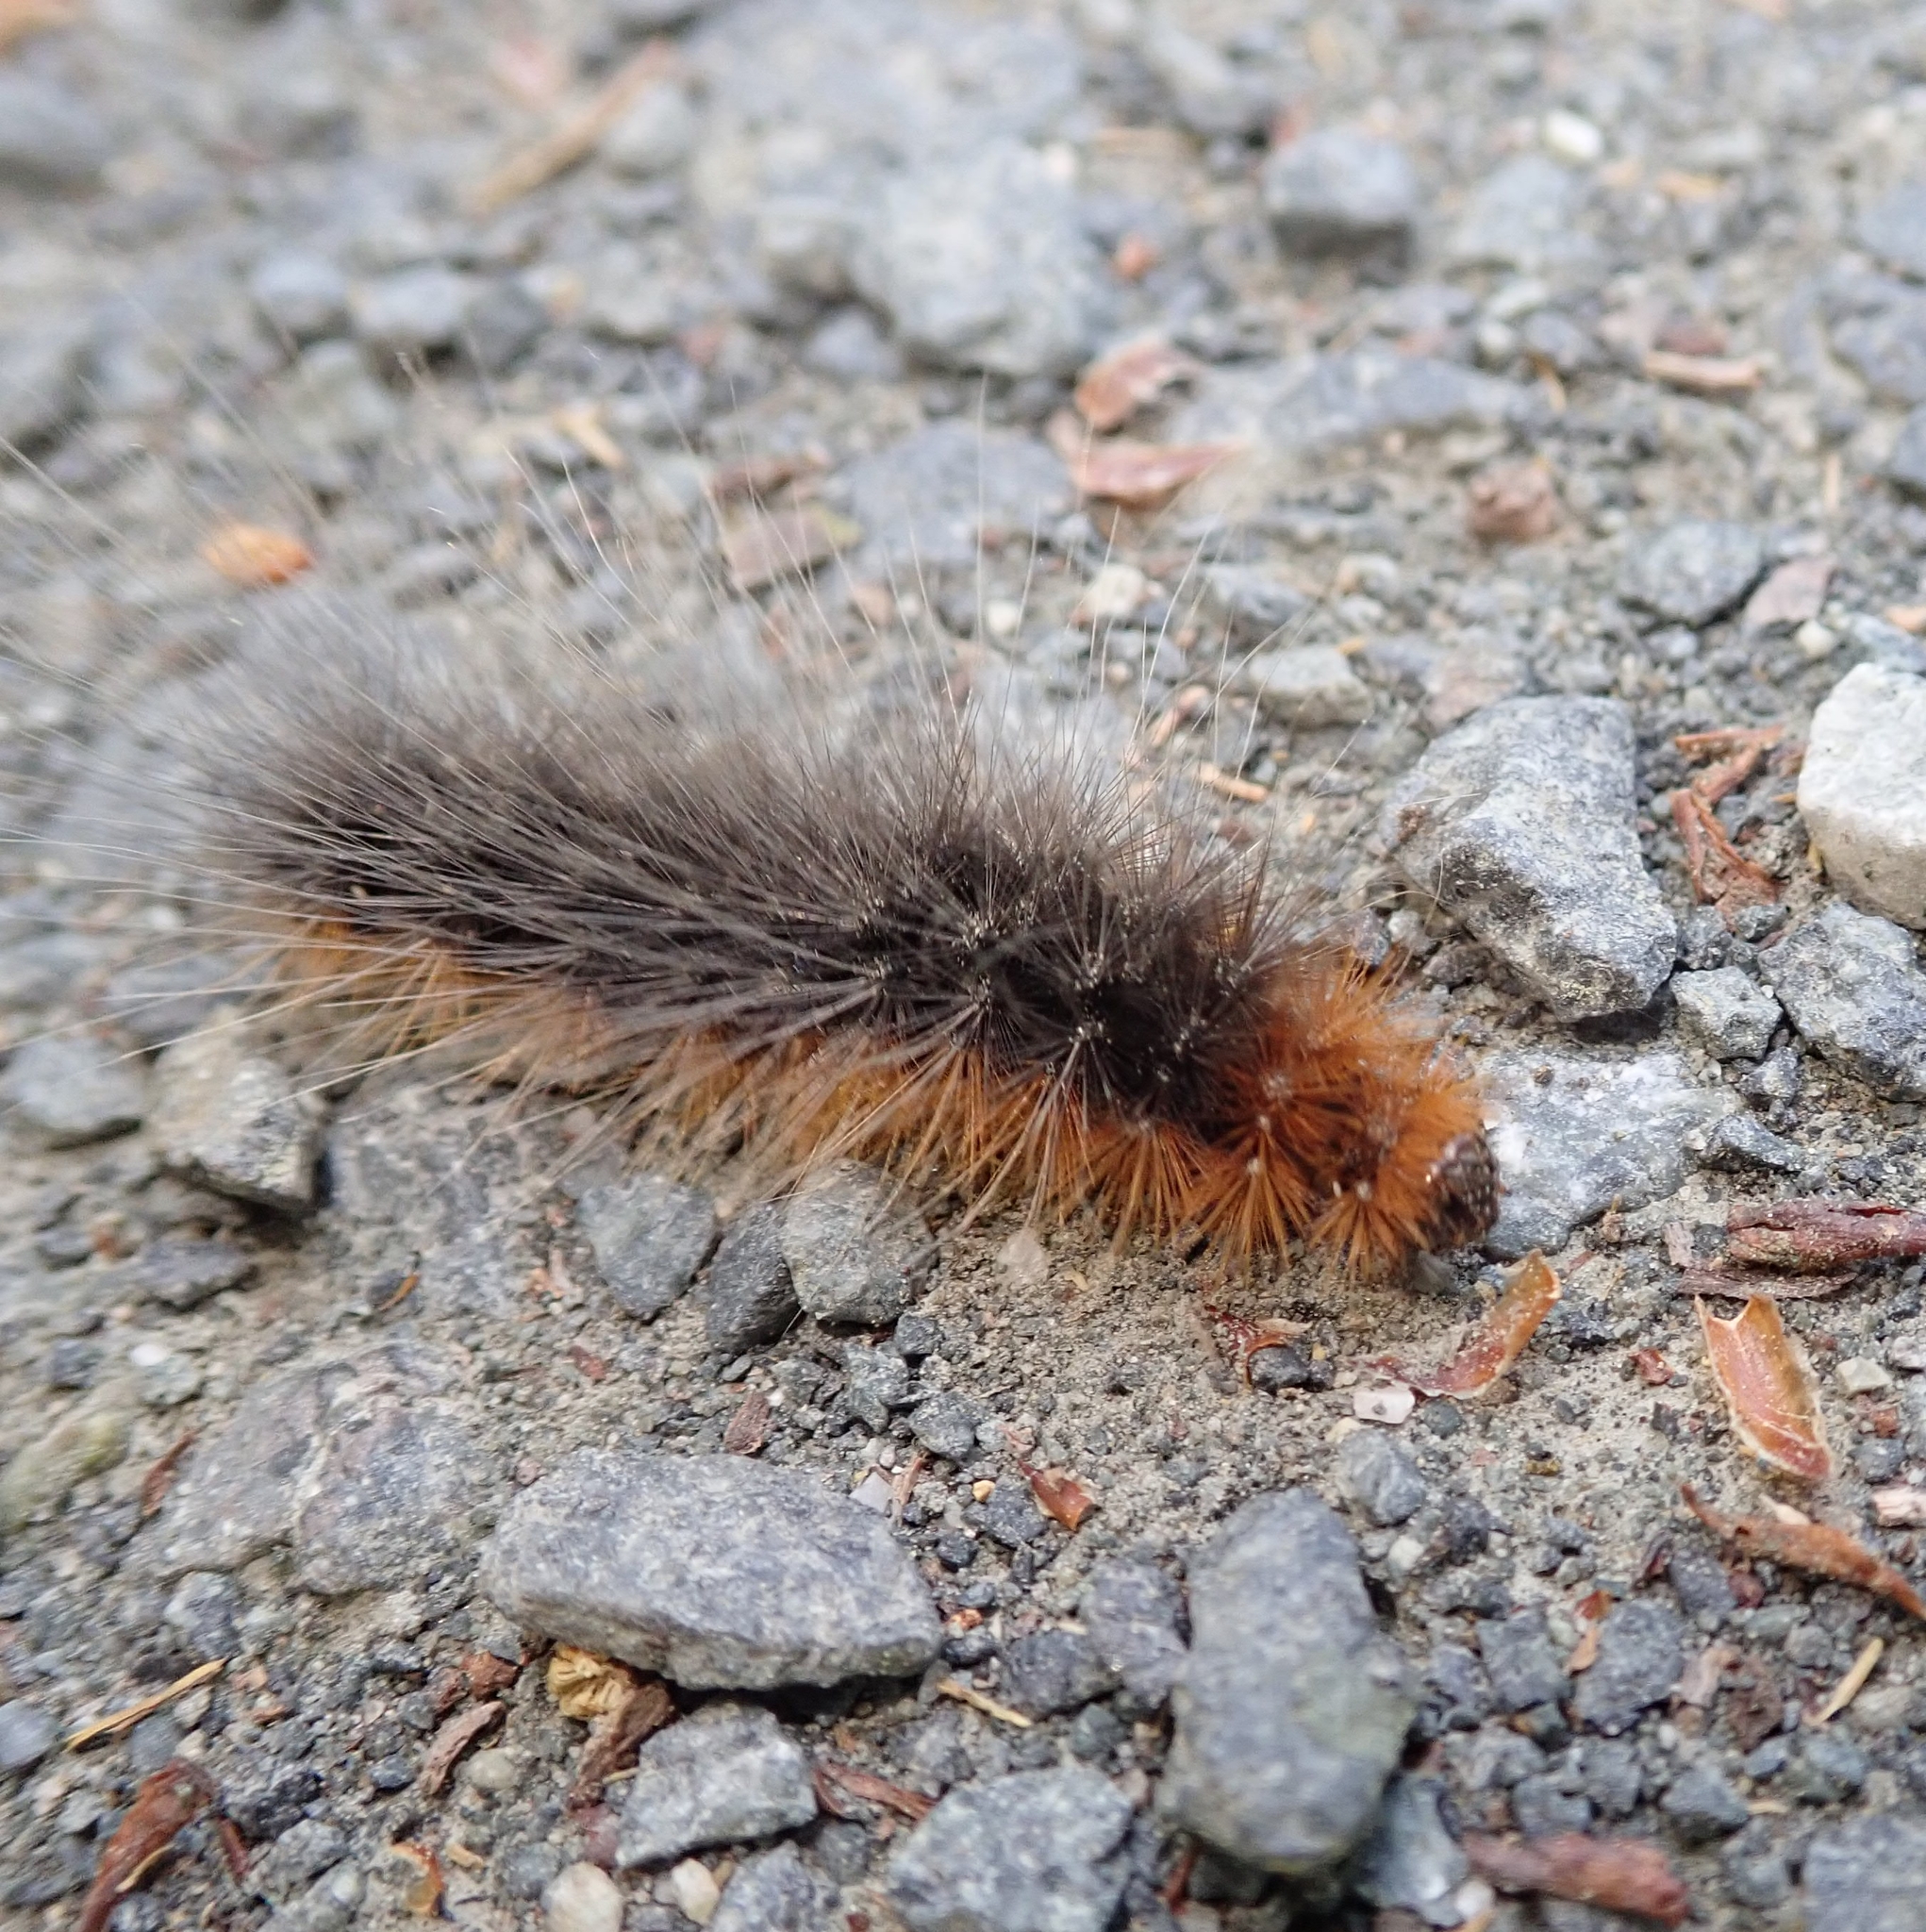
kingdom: Animalia
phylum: Arthropoda
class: Insecta
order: Lepidoptera
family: Erebidae
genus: Arctia
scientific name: Arctia caja
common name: Garden tiger
